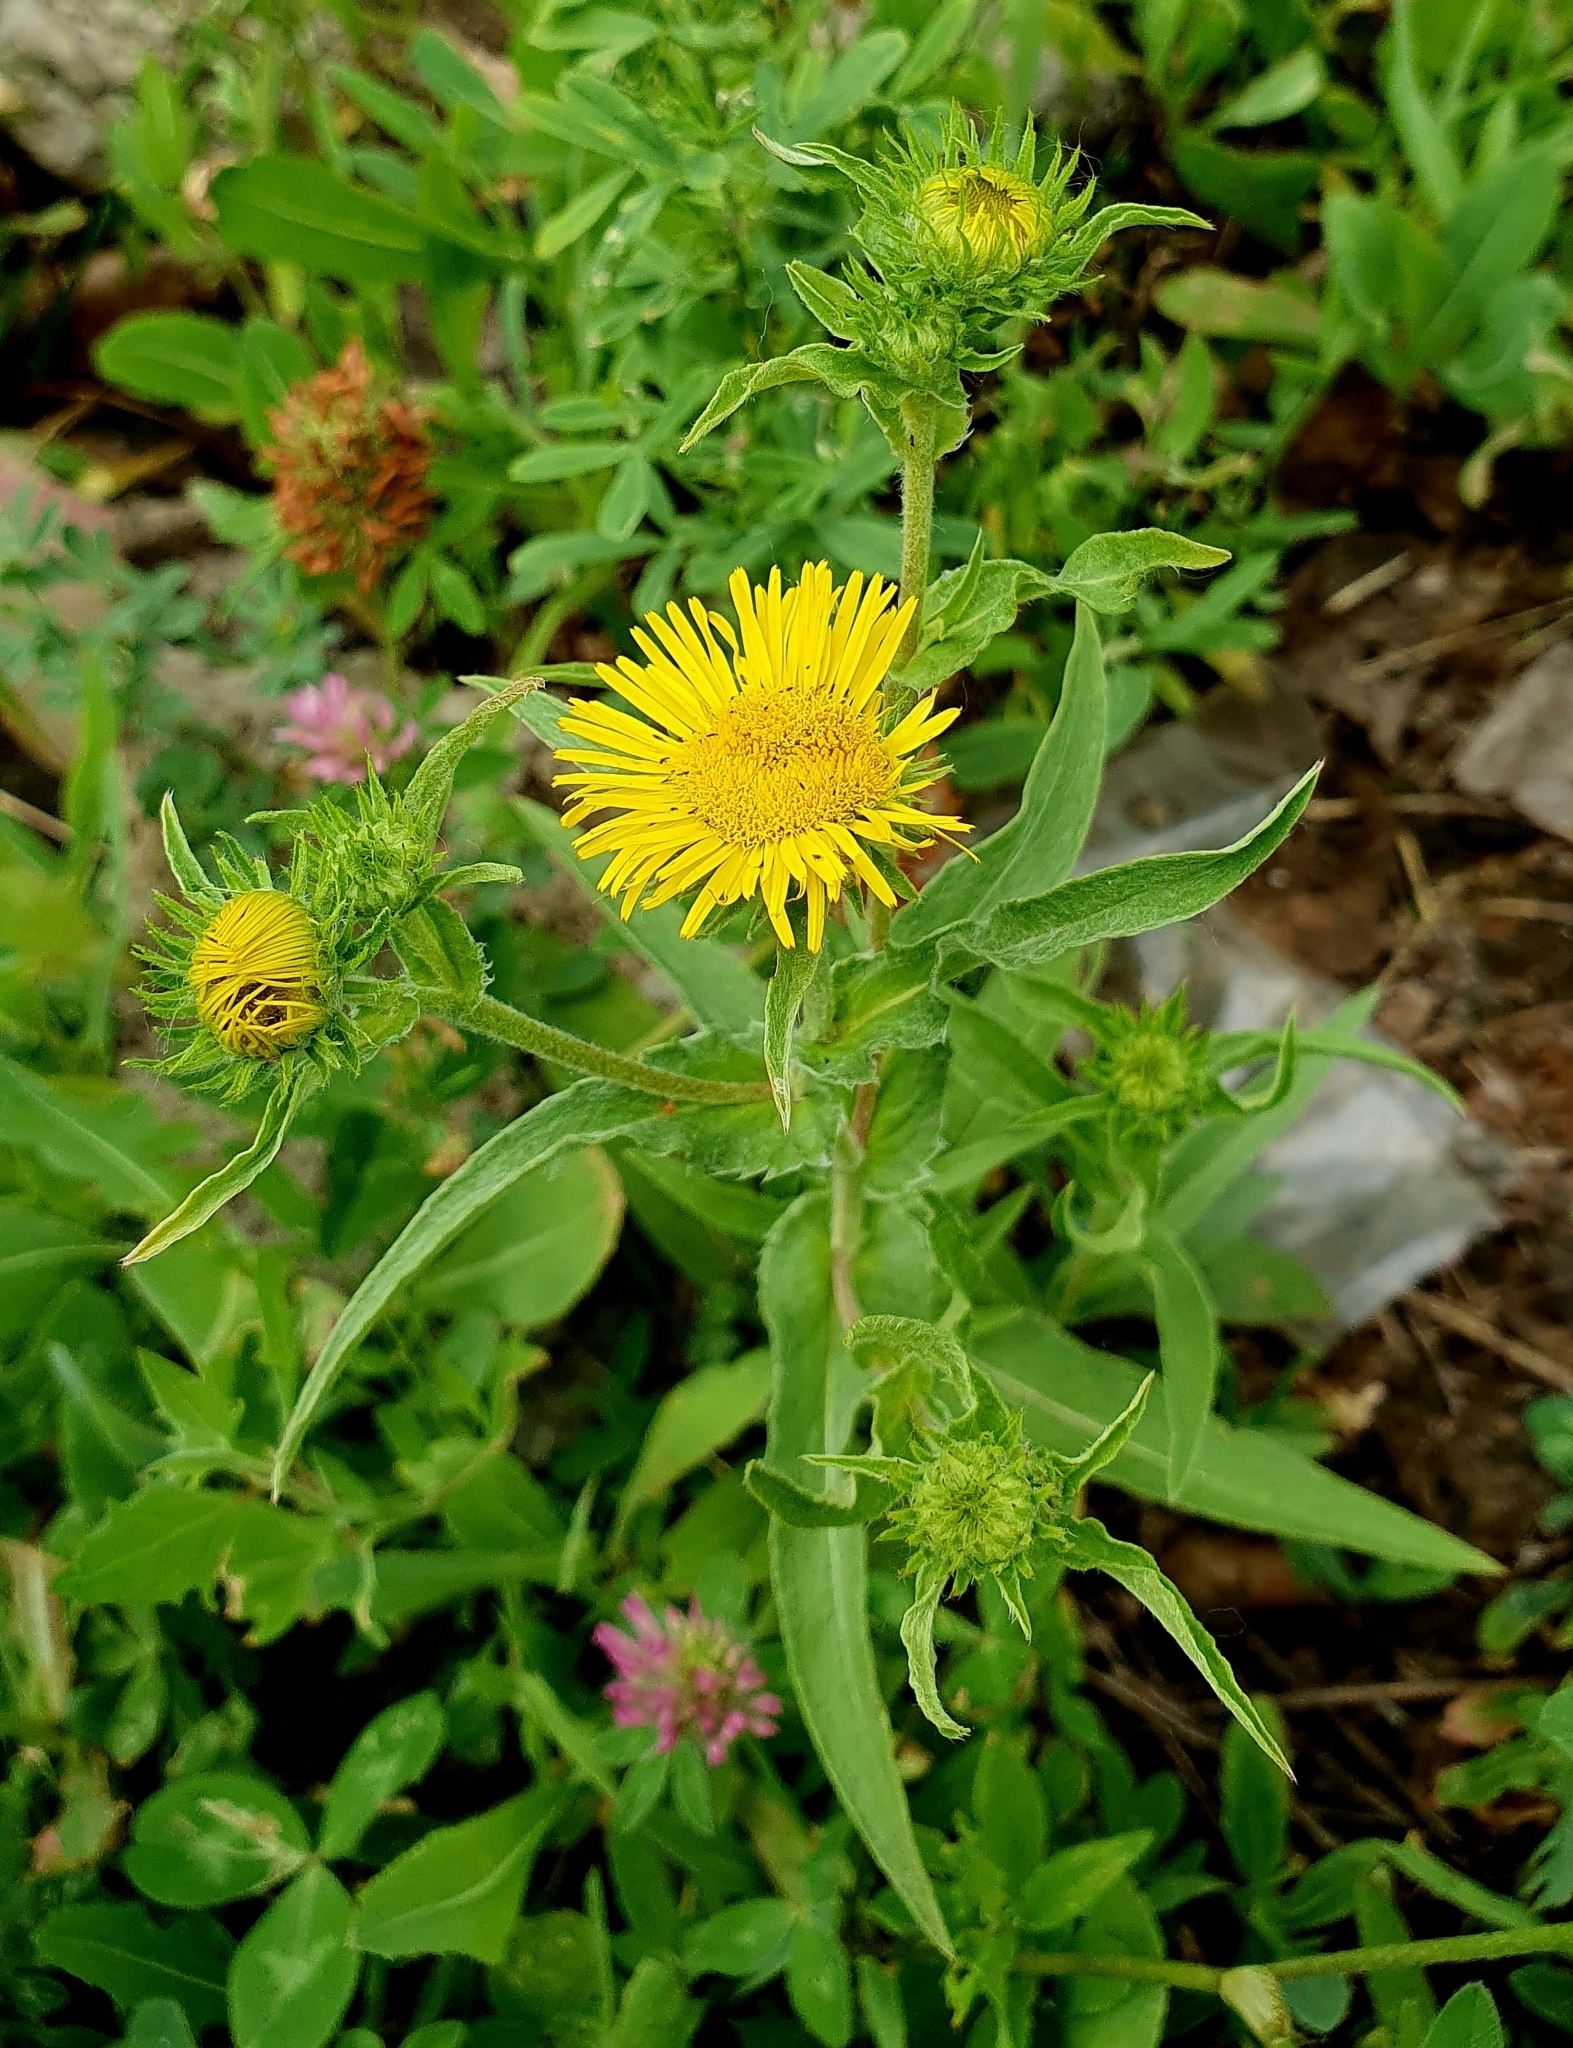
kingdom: Plantae
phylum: Tracheophyta
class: Magnoliopsida
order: Asterales
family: Asteraceae
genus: Pentanema
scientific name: Pentanema britannicum
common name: British elecampane
